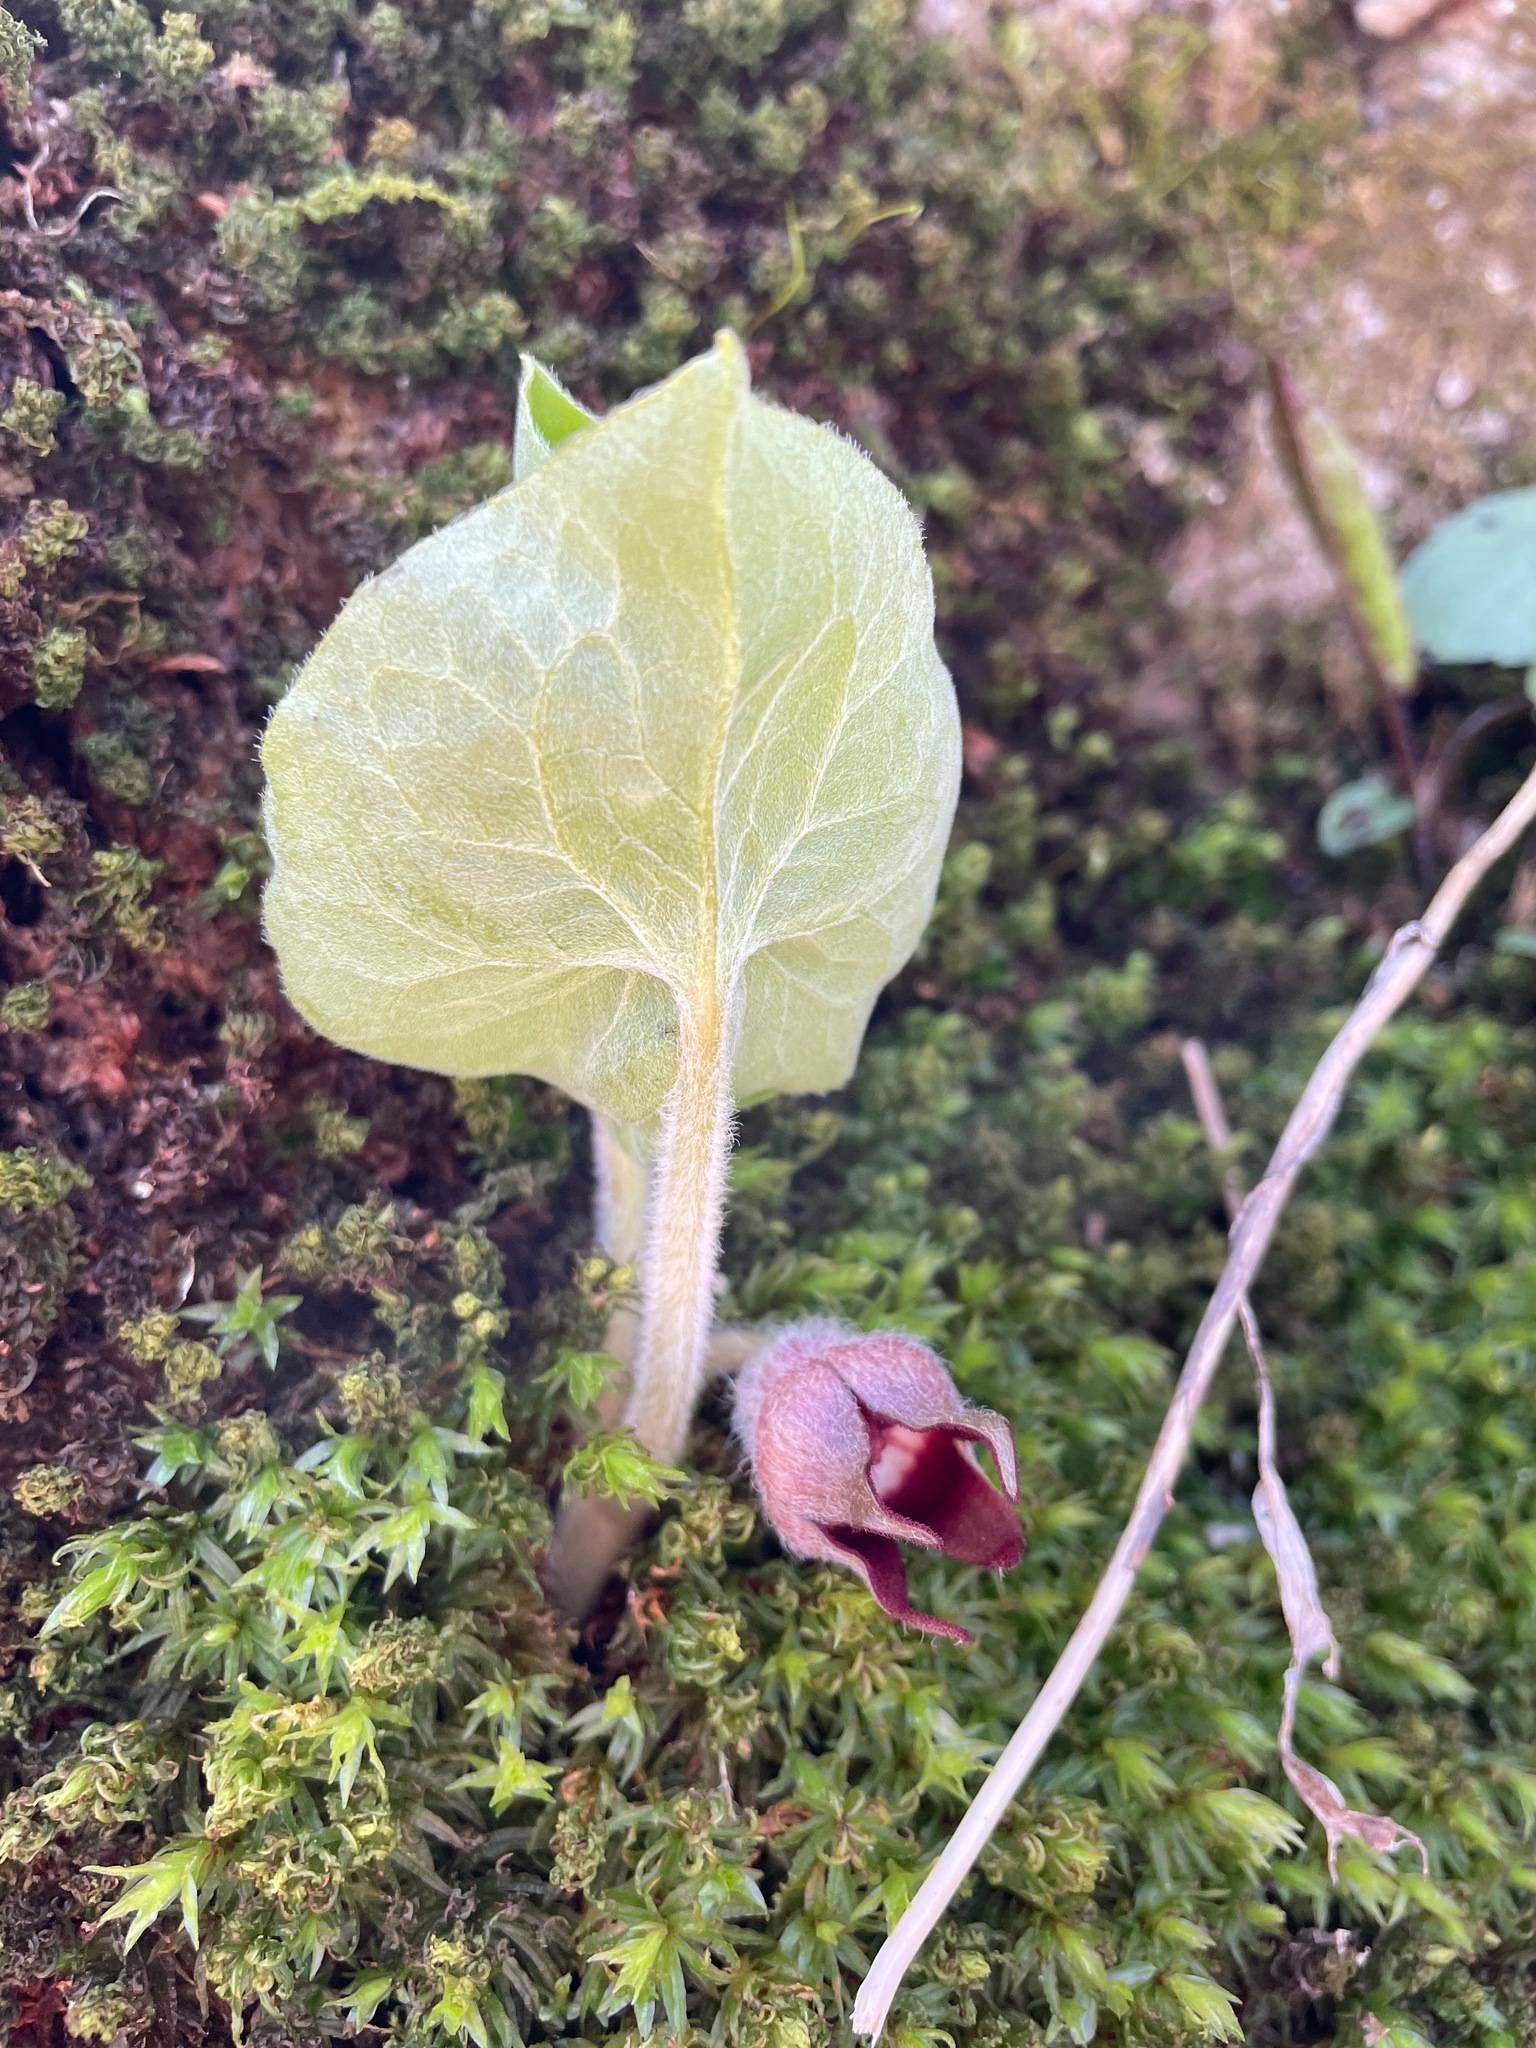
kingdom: Plantae
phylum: Tracheophyta
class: Magnoliopsida
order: Piperales
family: Aristolochiaceae
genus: Asarum
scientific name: Asarum canadense
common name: Wild ginger
